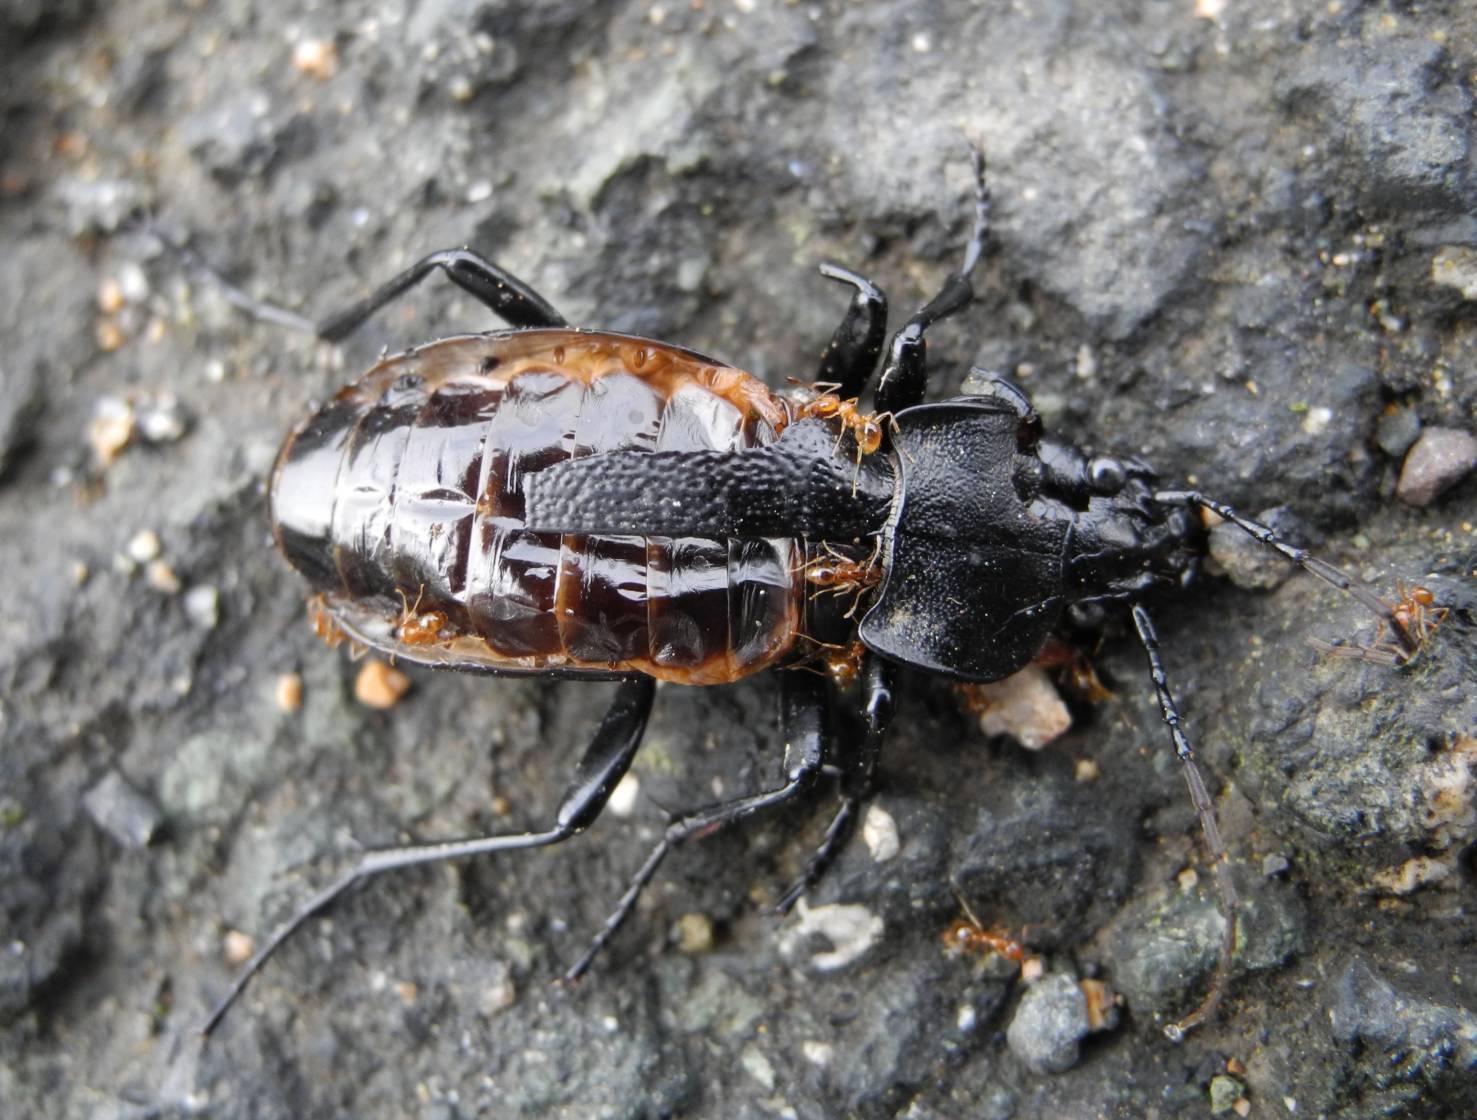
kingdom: Animalia
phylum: Arthropoda
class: Insecta
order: Coleoptera
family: Carabidae
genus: Carabus
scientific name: Carabus coriaceus
